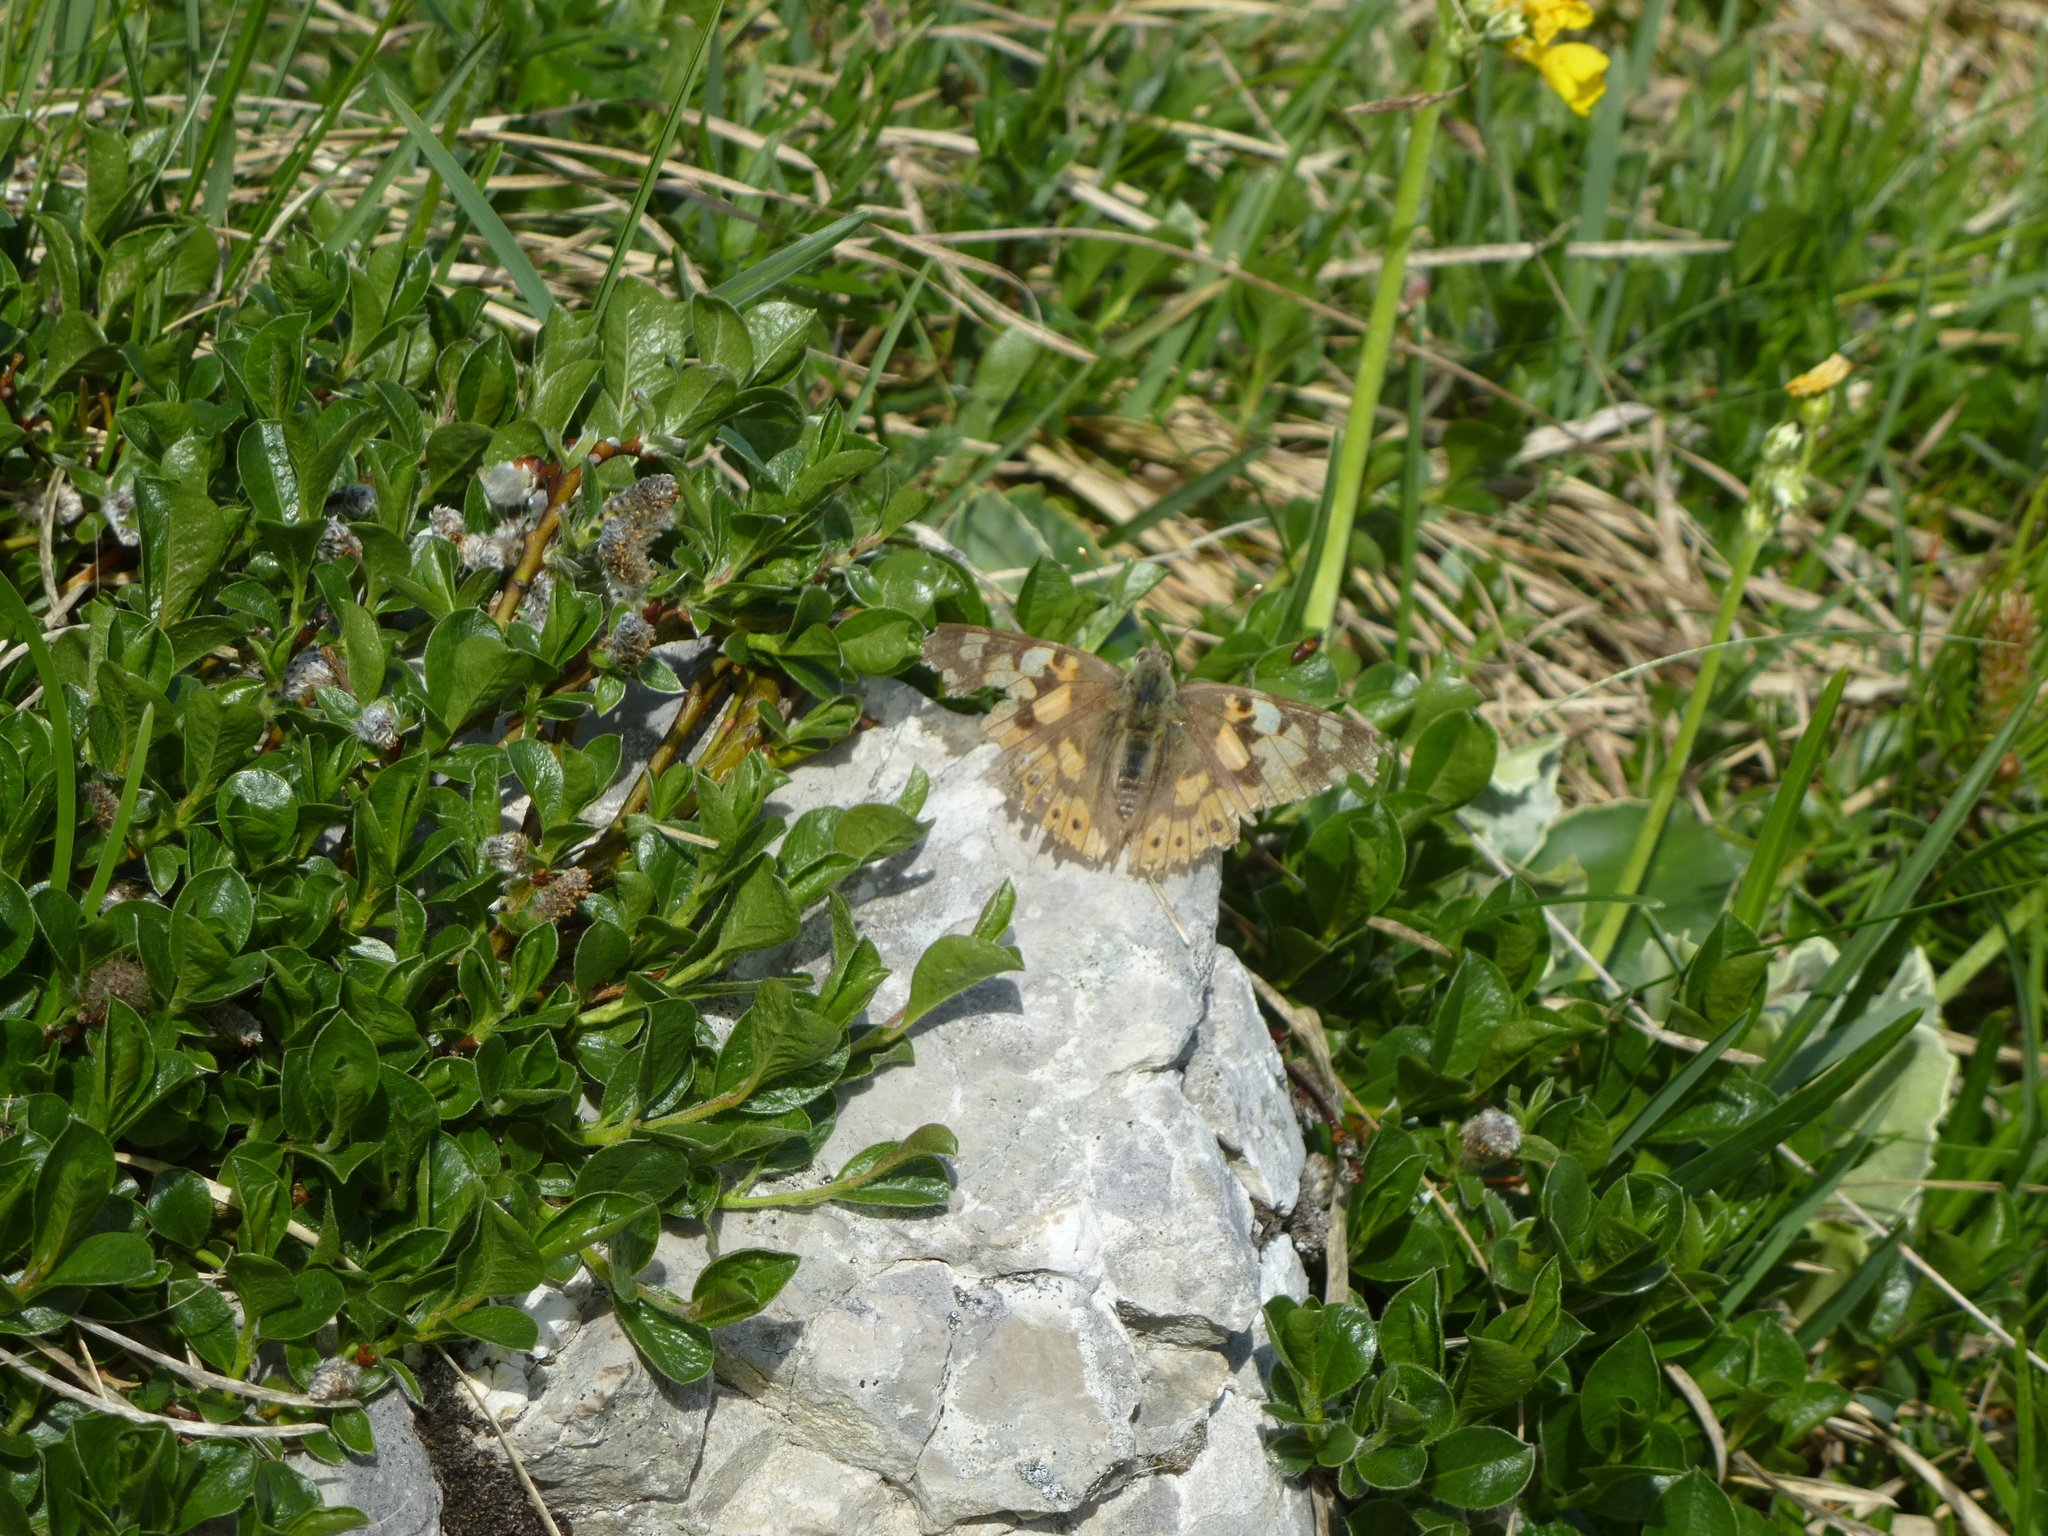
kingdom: Animalia
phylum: Arthropoda
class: Insecta
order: Lepidoptera
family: Nymphalidae
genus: Vanessa
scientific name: Vanessa cardui
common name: Painted lady
